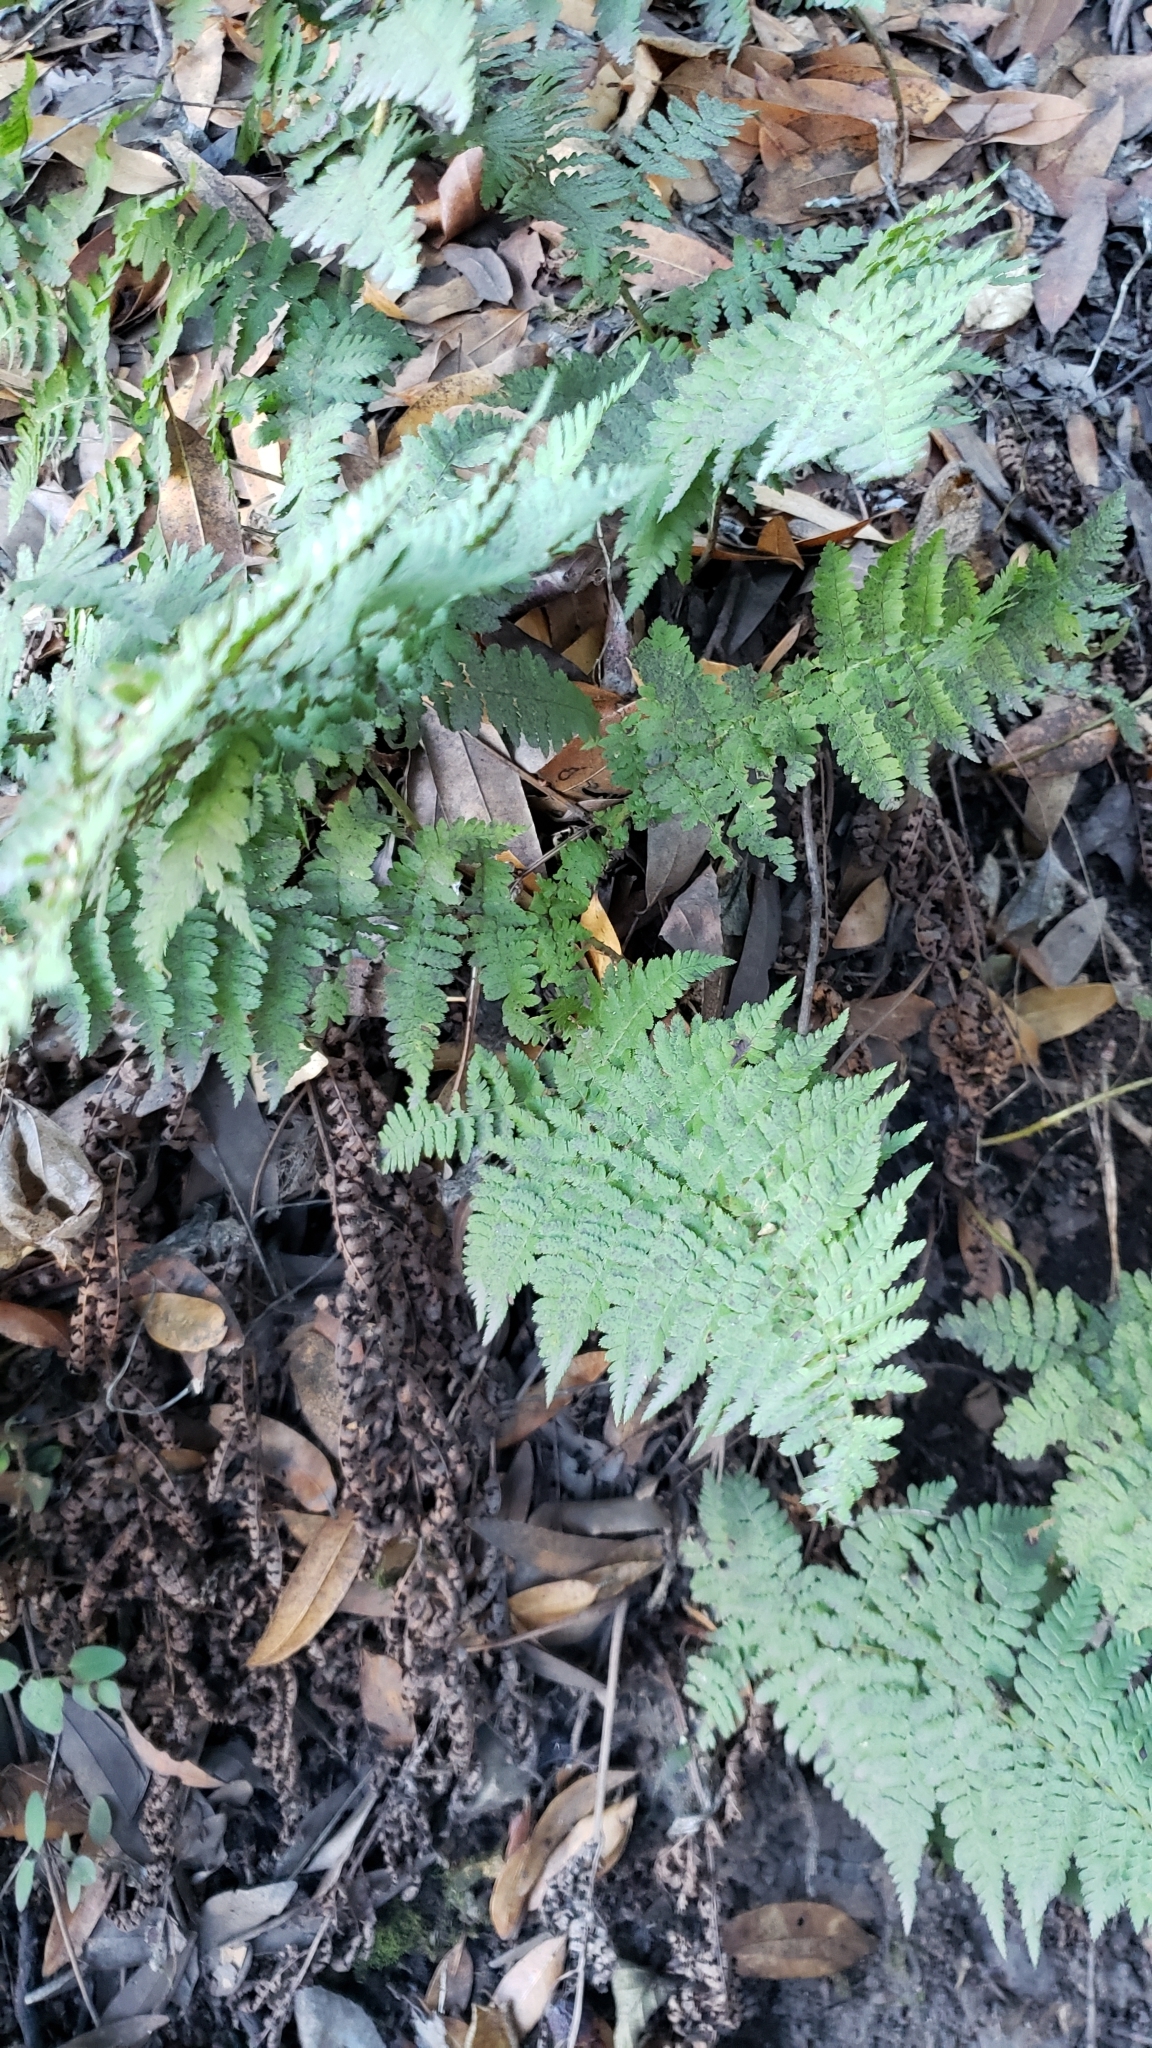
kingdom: Plantae
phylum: Tracheophyta
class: Polypodiopsida
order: Polypodiales
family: Dryopteridaceae
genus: Dryopteris
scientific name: Dryopteris arguta
